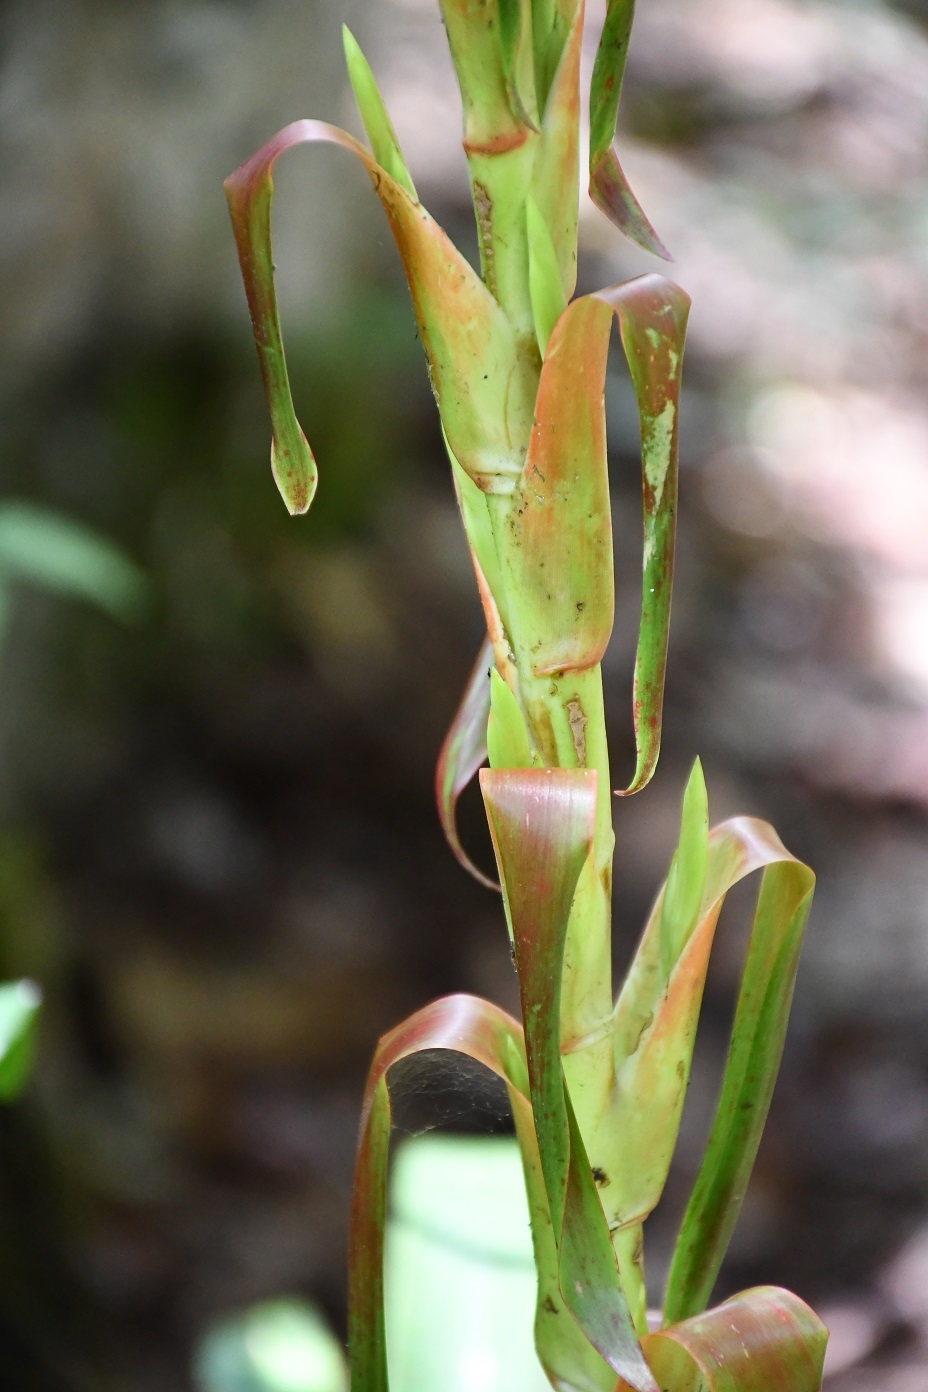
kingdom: Plantae
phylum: Tracheophyta
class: Liliopsida
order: Poales
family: Bromeliaceae
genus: Tillandsia
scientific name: Tillandsia guatemalensis
